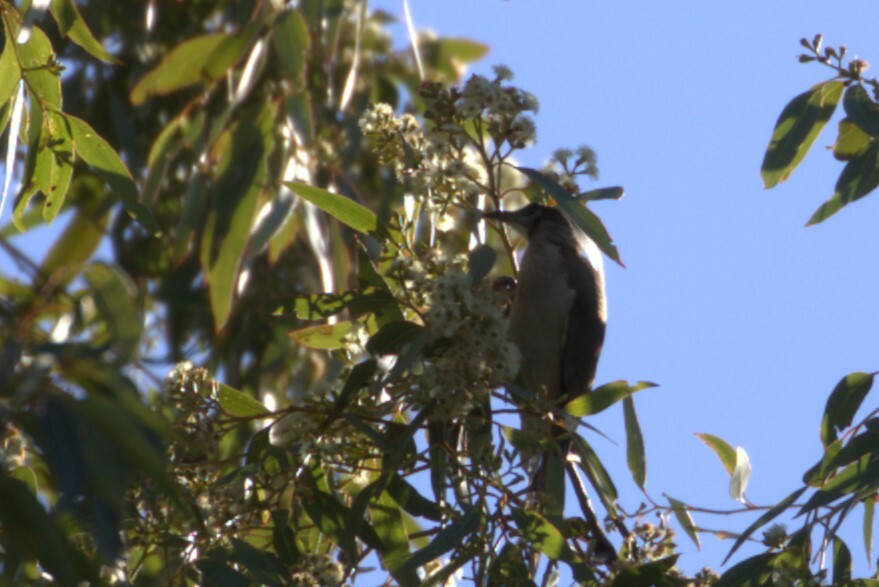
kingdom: Animalia
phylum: Chordata
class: Aves
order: Passeriformes
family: Meliphagidae
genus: Philemon
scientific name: Philemon citreogularis
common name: Little friarbird
